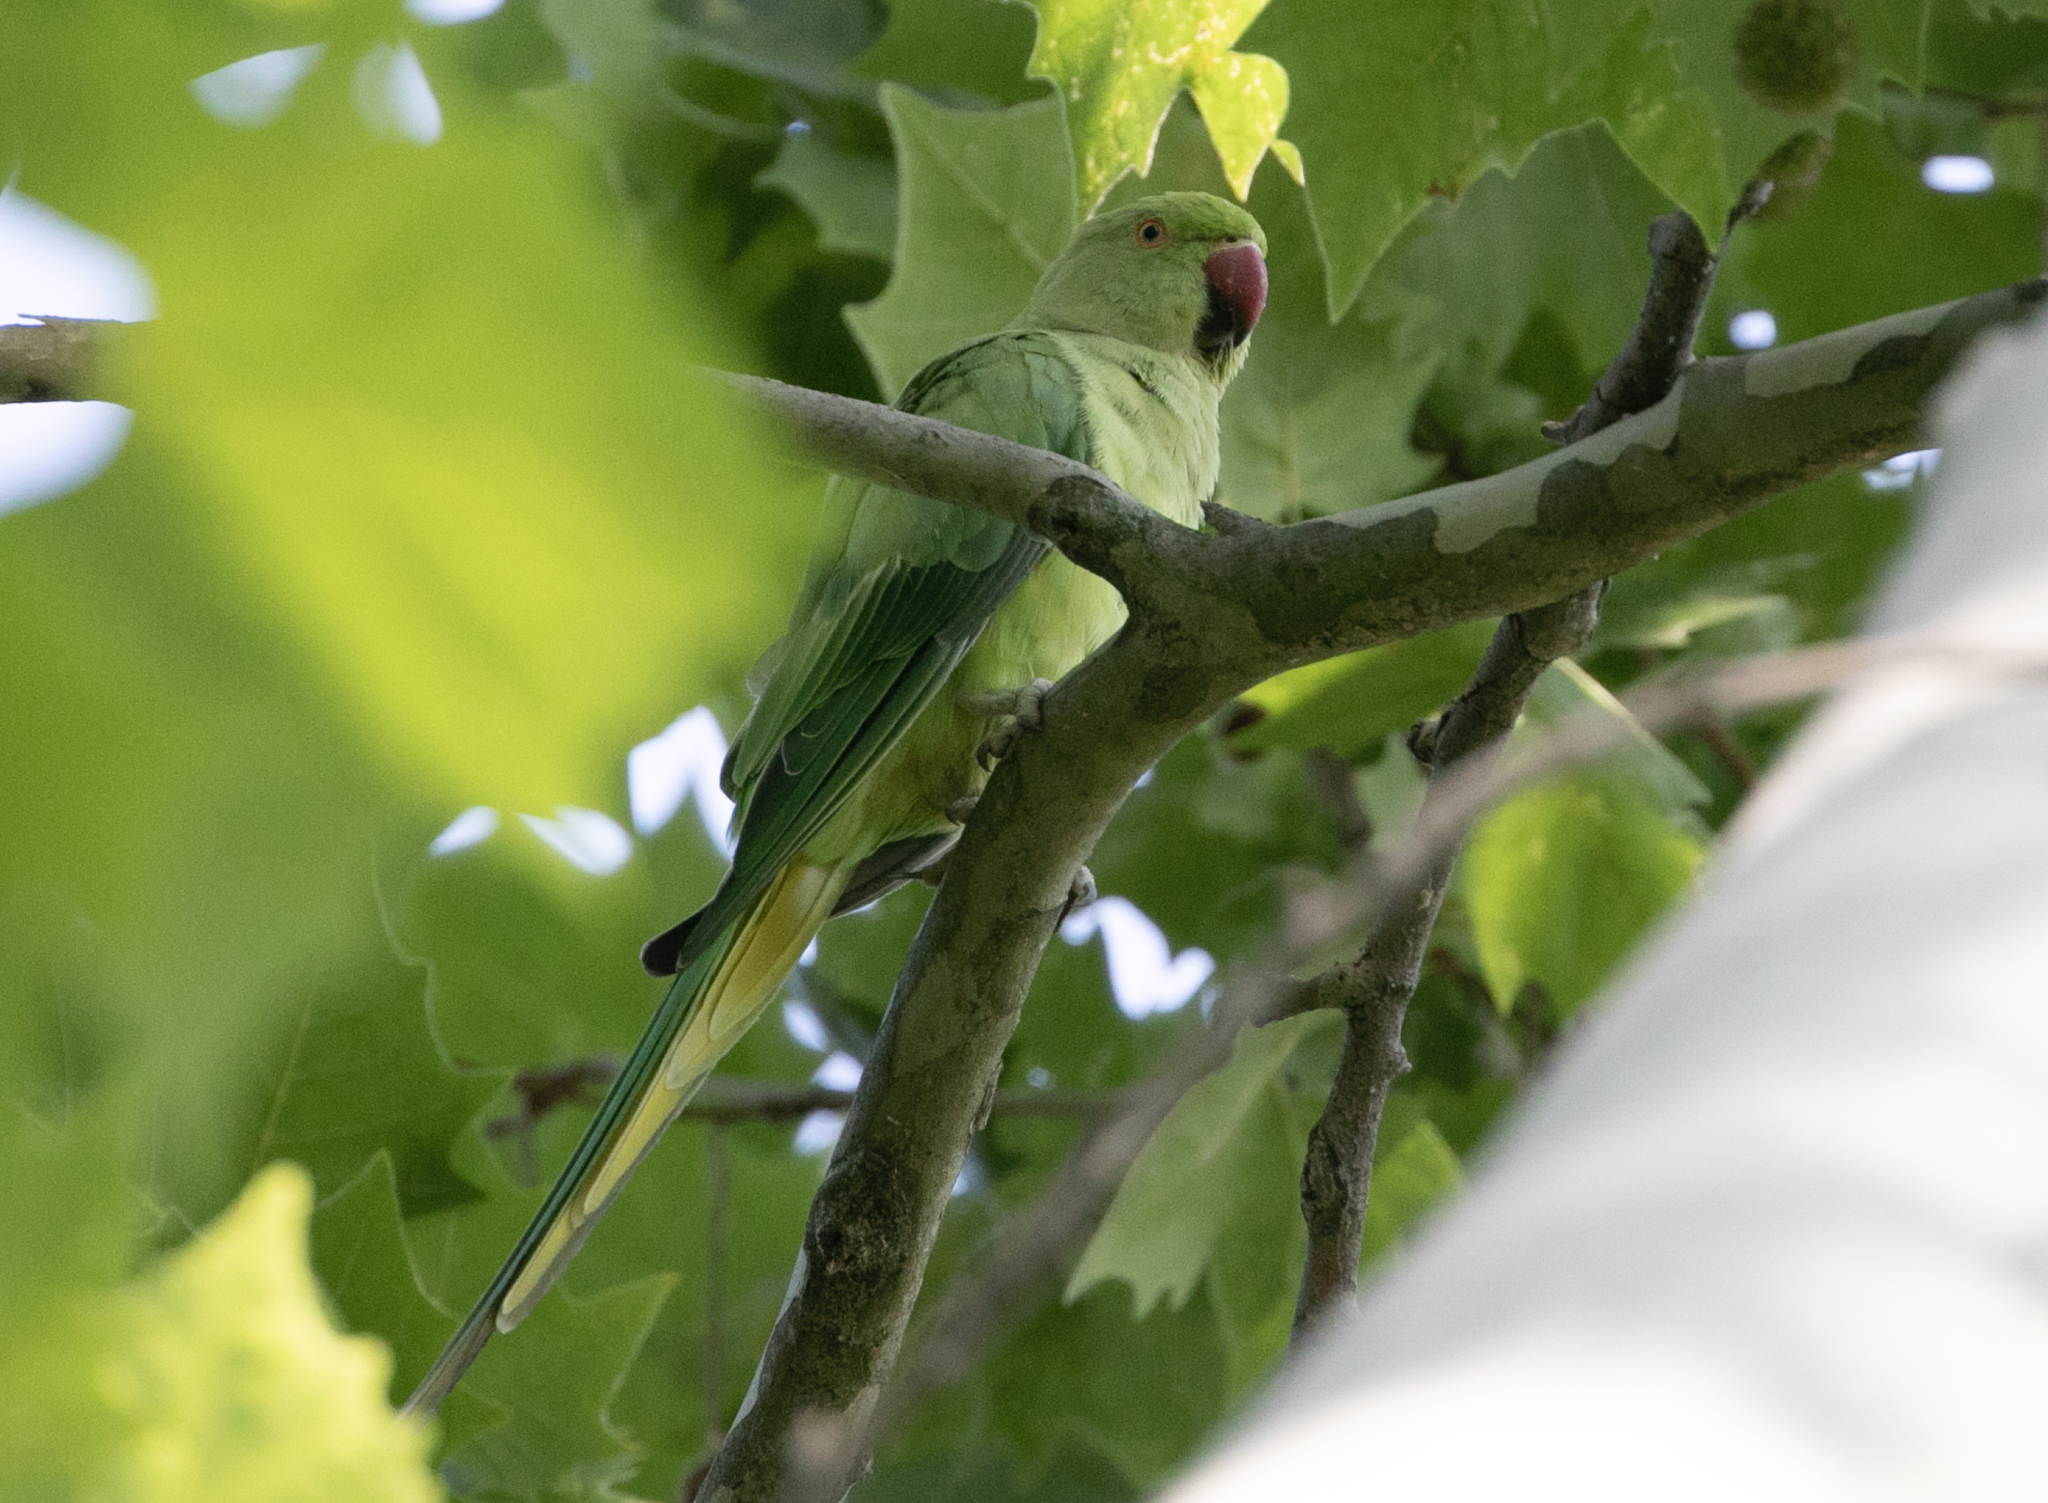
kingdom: Animalia
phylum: Chordata
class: Aves
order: Psittaciformes
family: Psittacidae
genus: Psittacula
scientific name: Psittacula krameri
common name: Rose-ringed parakeet
